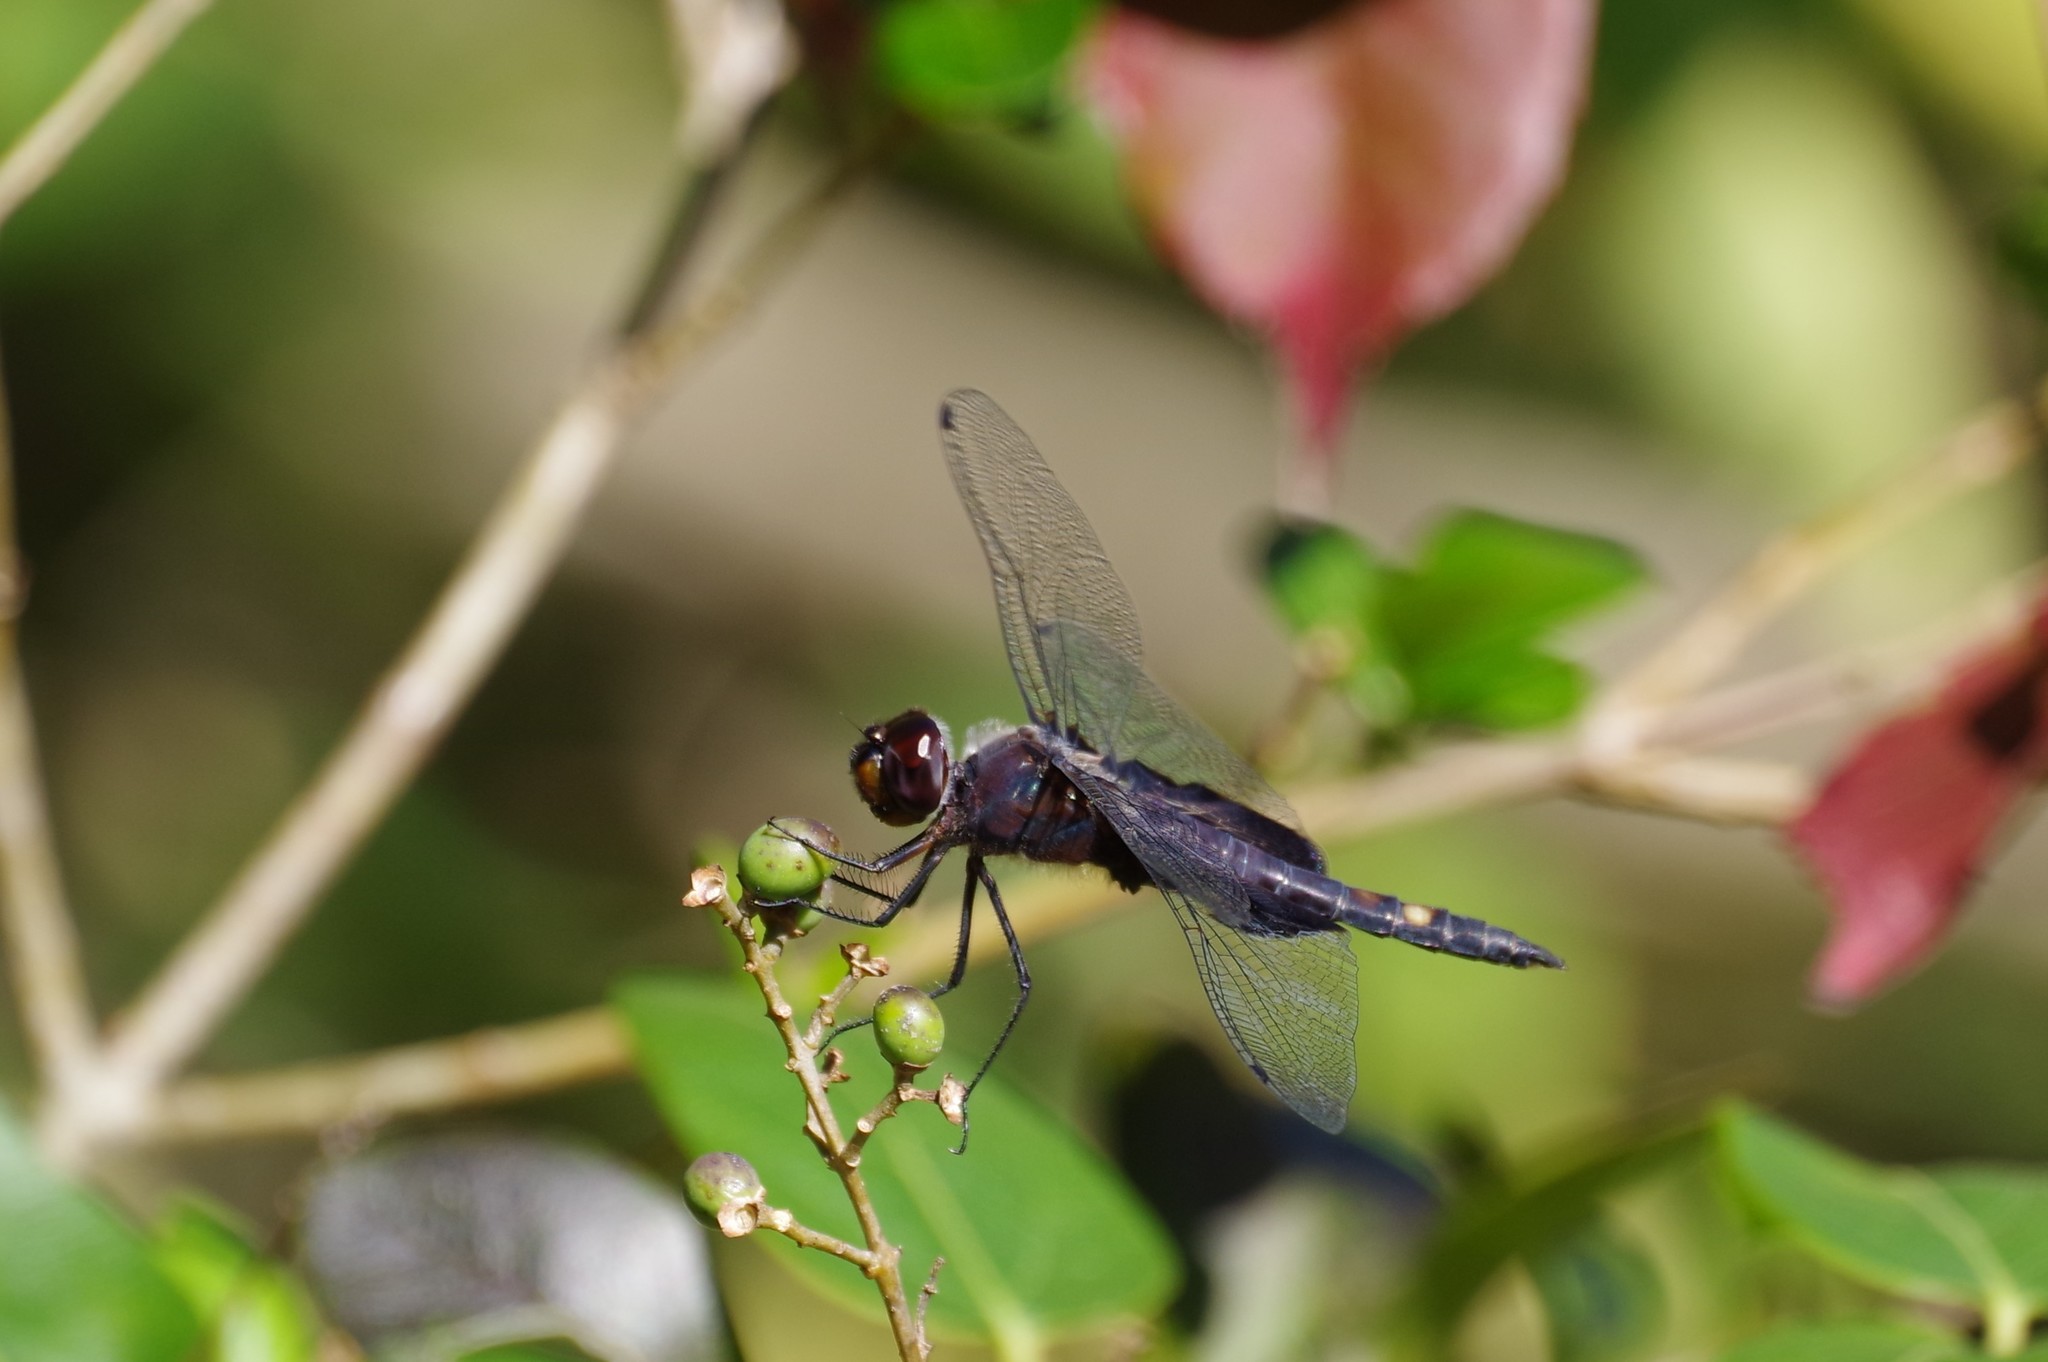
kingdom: Animalia
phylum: Arthropoda
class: Insecta
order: Odonata
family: Libellulidae
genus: Tramea
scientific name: Tramea lacerata
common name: Black saddlebags
